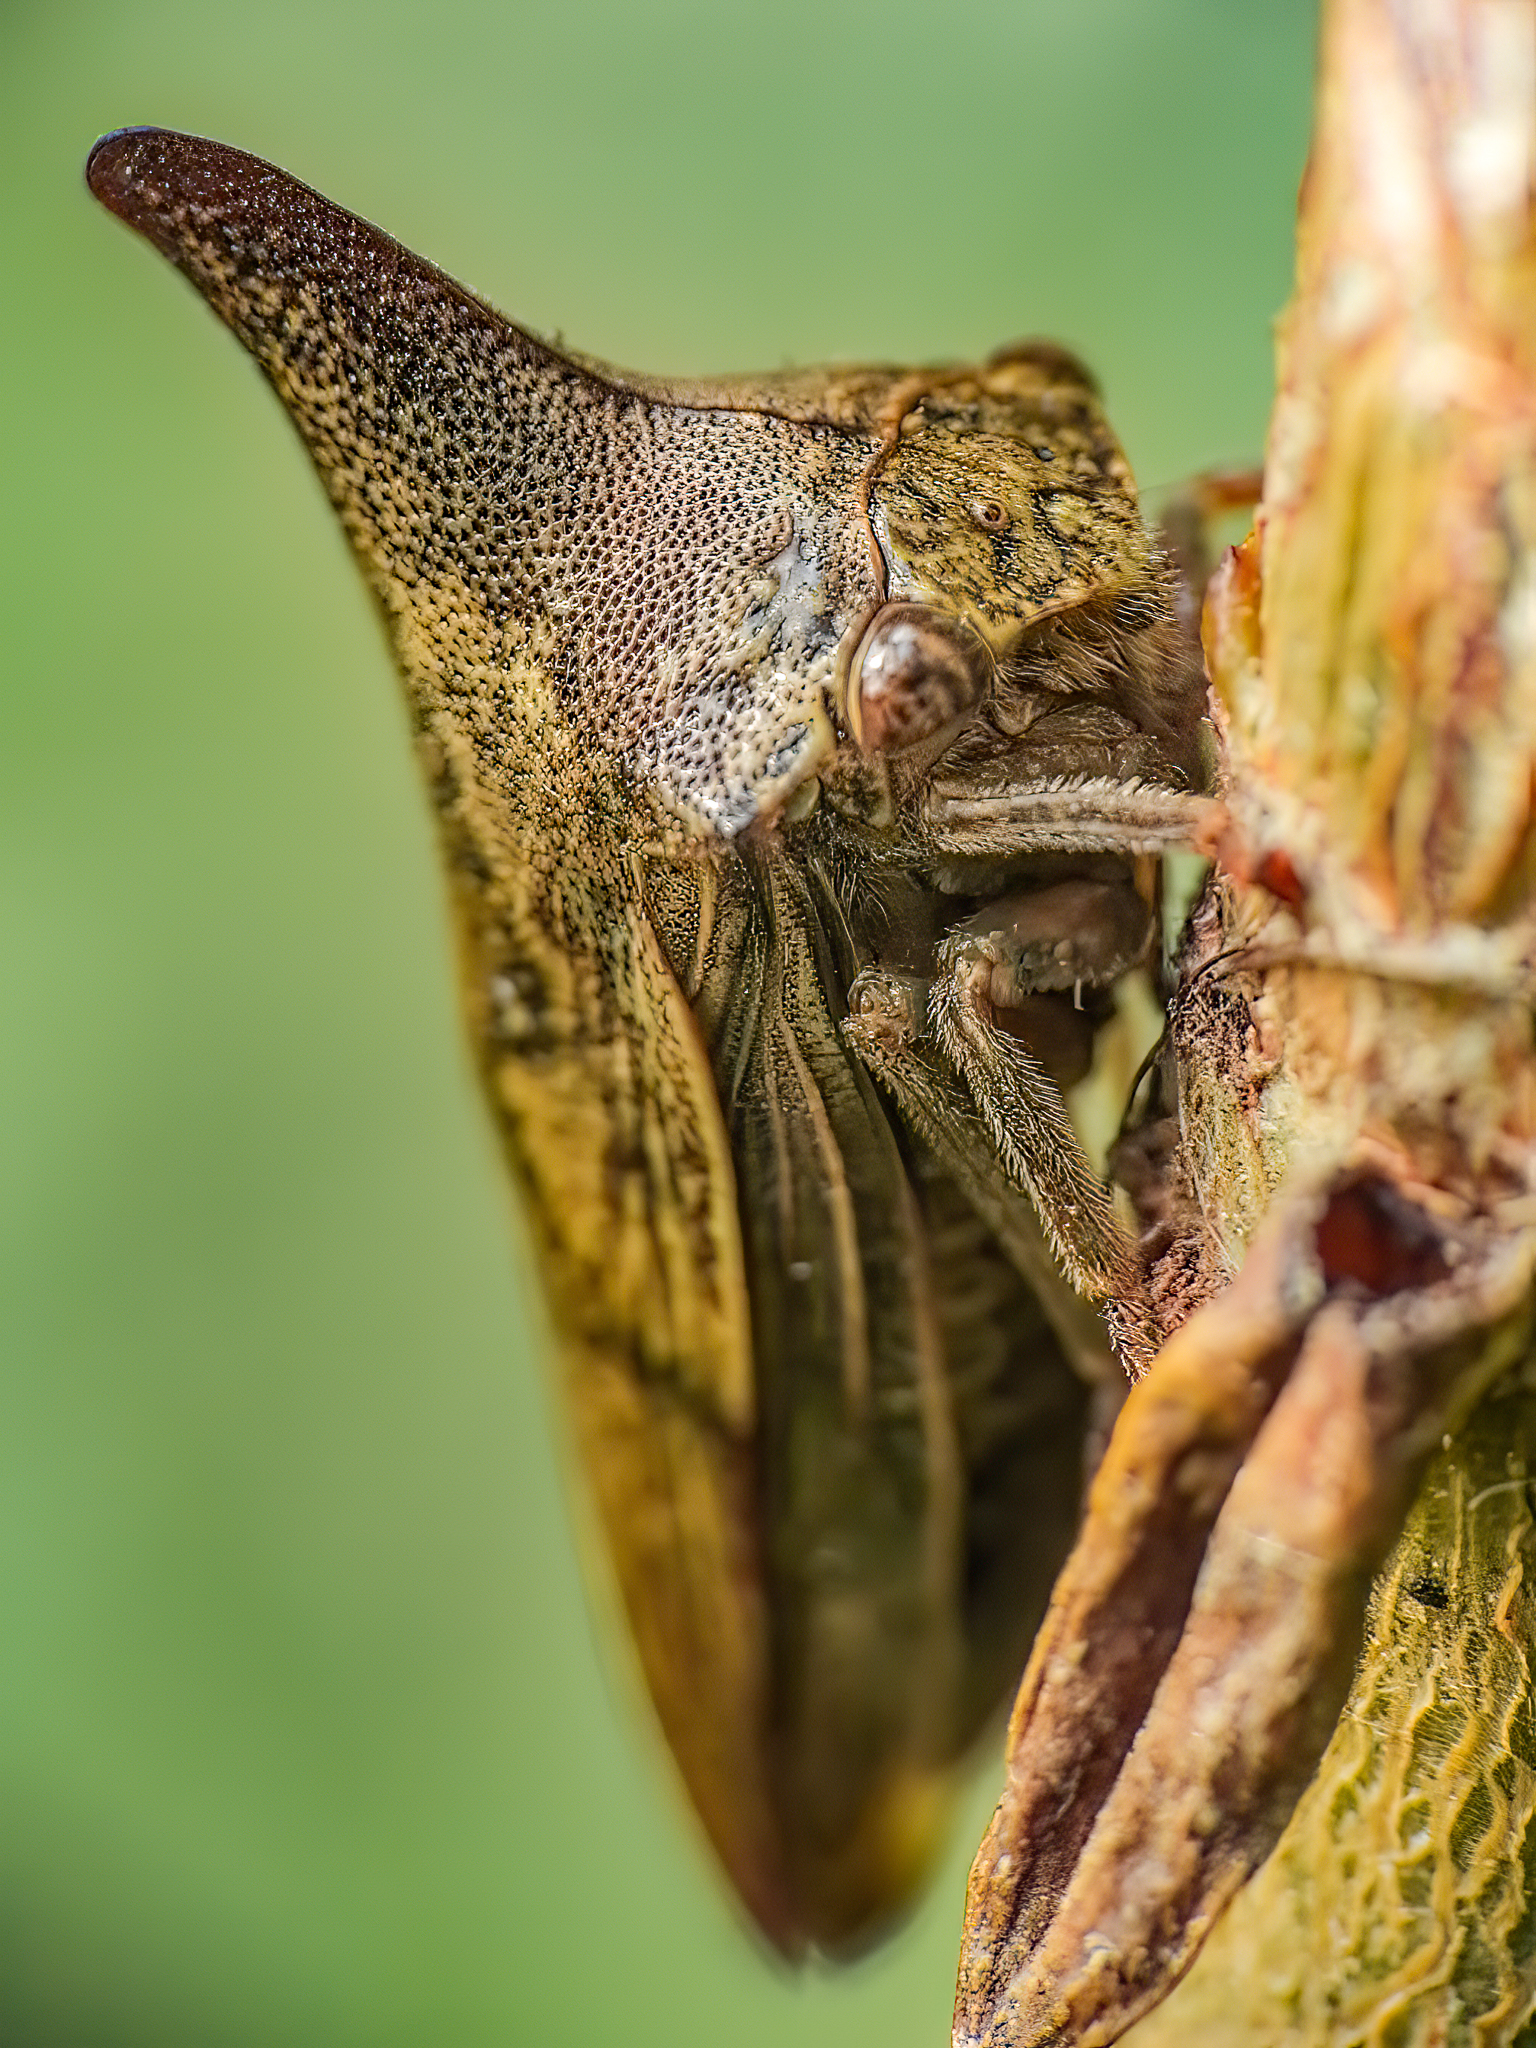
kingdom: Animalia
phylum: Arthropoda
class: Insecta
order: Hemiptera
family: Membracidae
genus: Thelia
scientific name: Thelia bimaculata
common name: Locust treehopper
